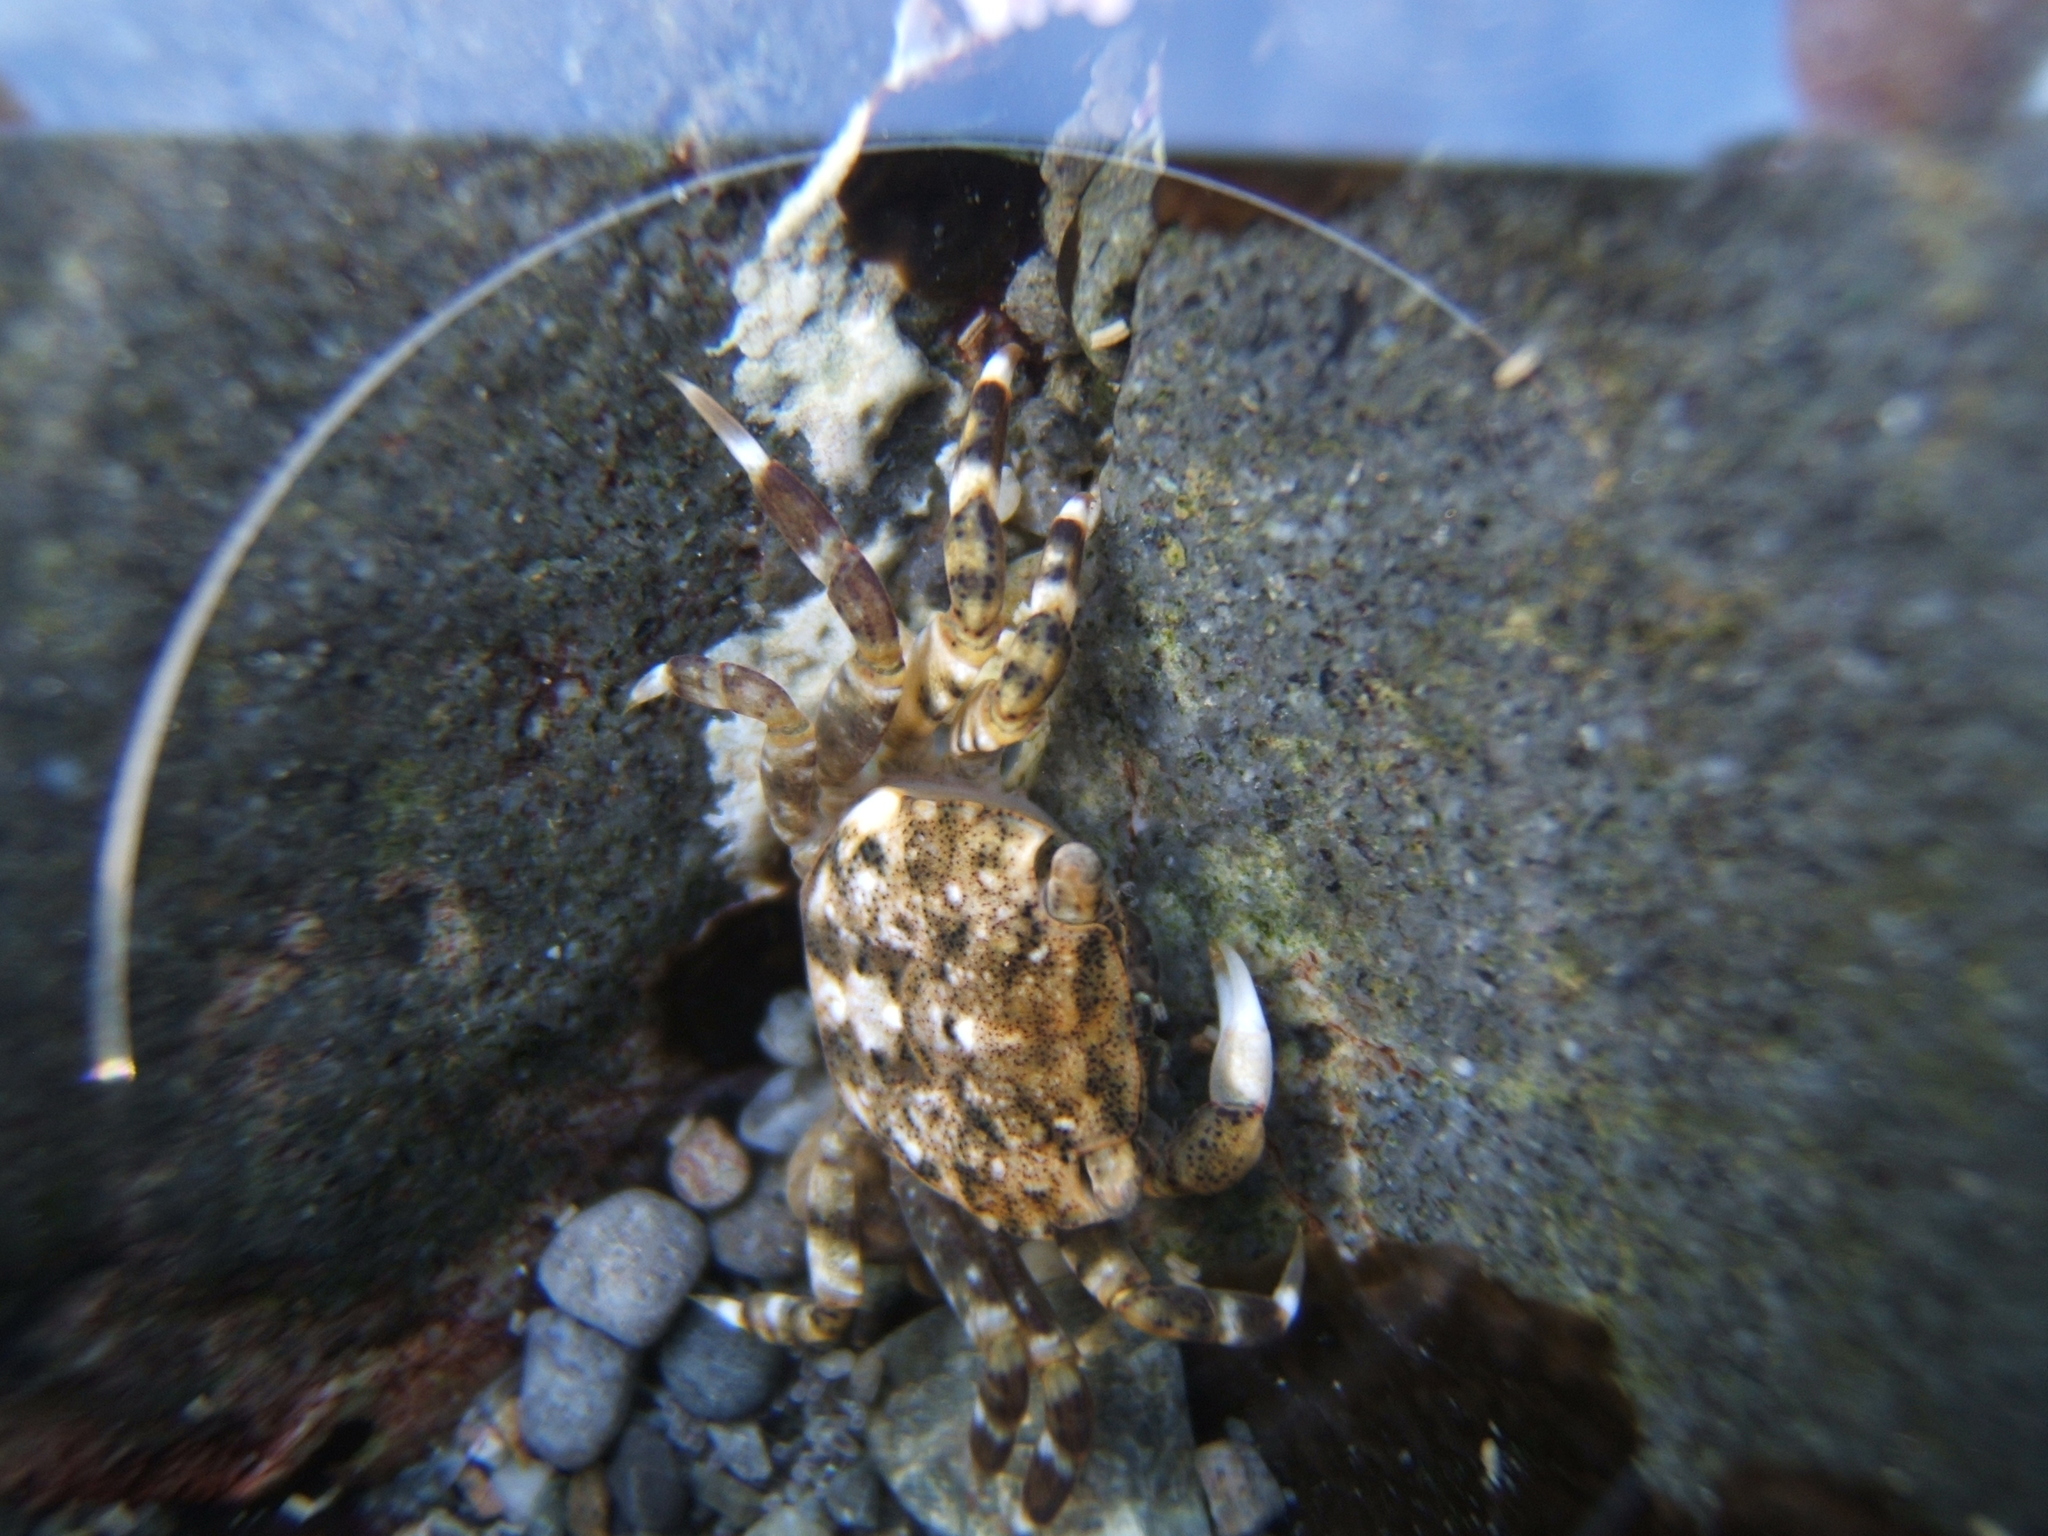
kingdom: Animalia
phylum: Arthropoda
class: Malacostraca
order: Decapoda
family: Varunidae
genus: Hemigrapsus
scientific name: Hemigrapsus sexdentatus
